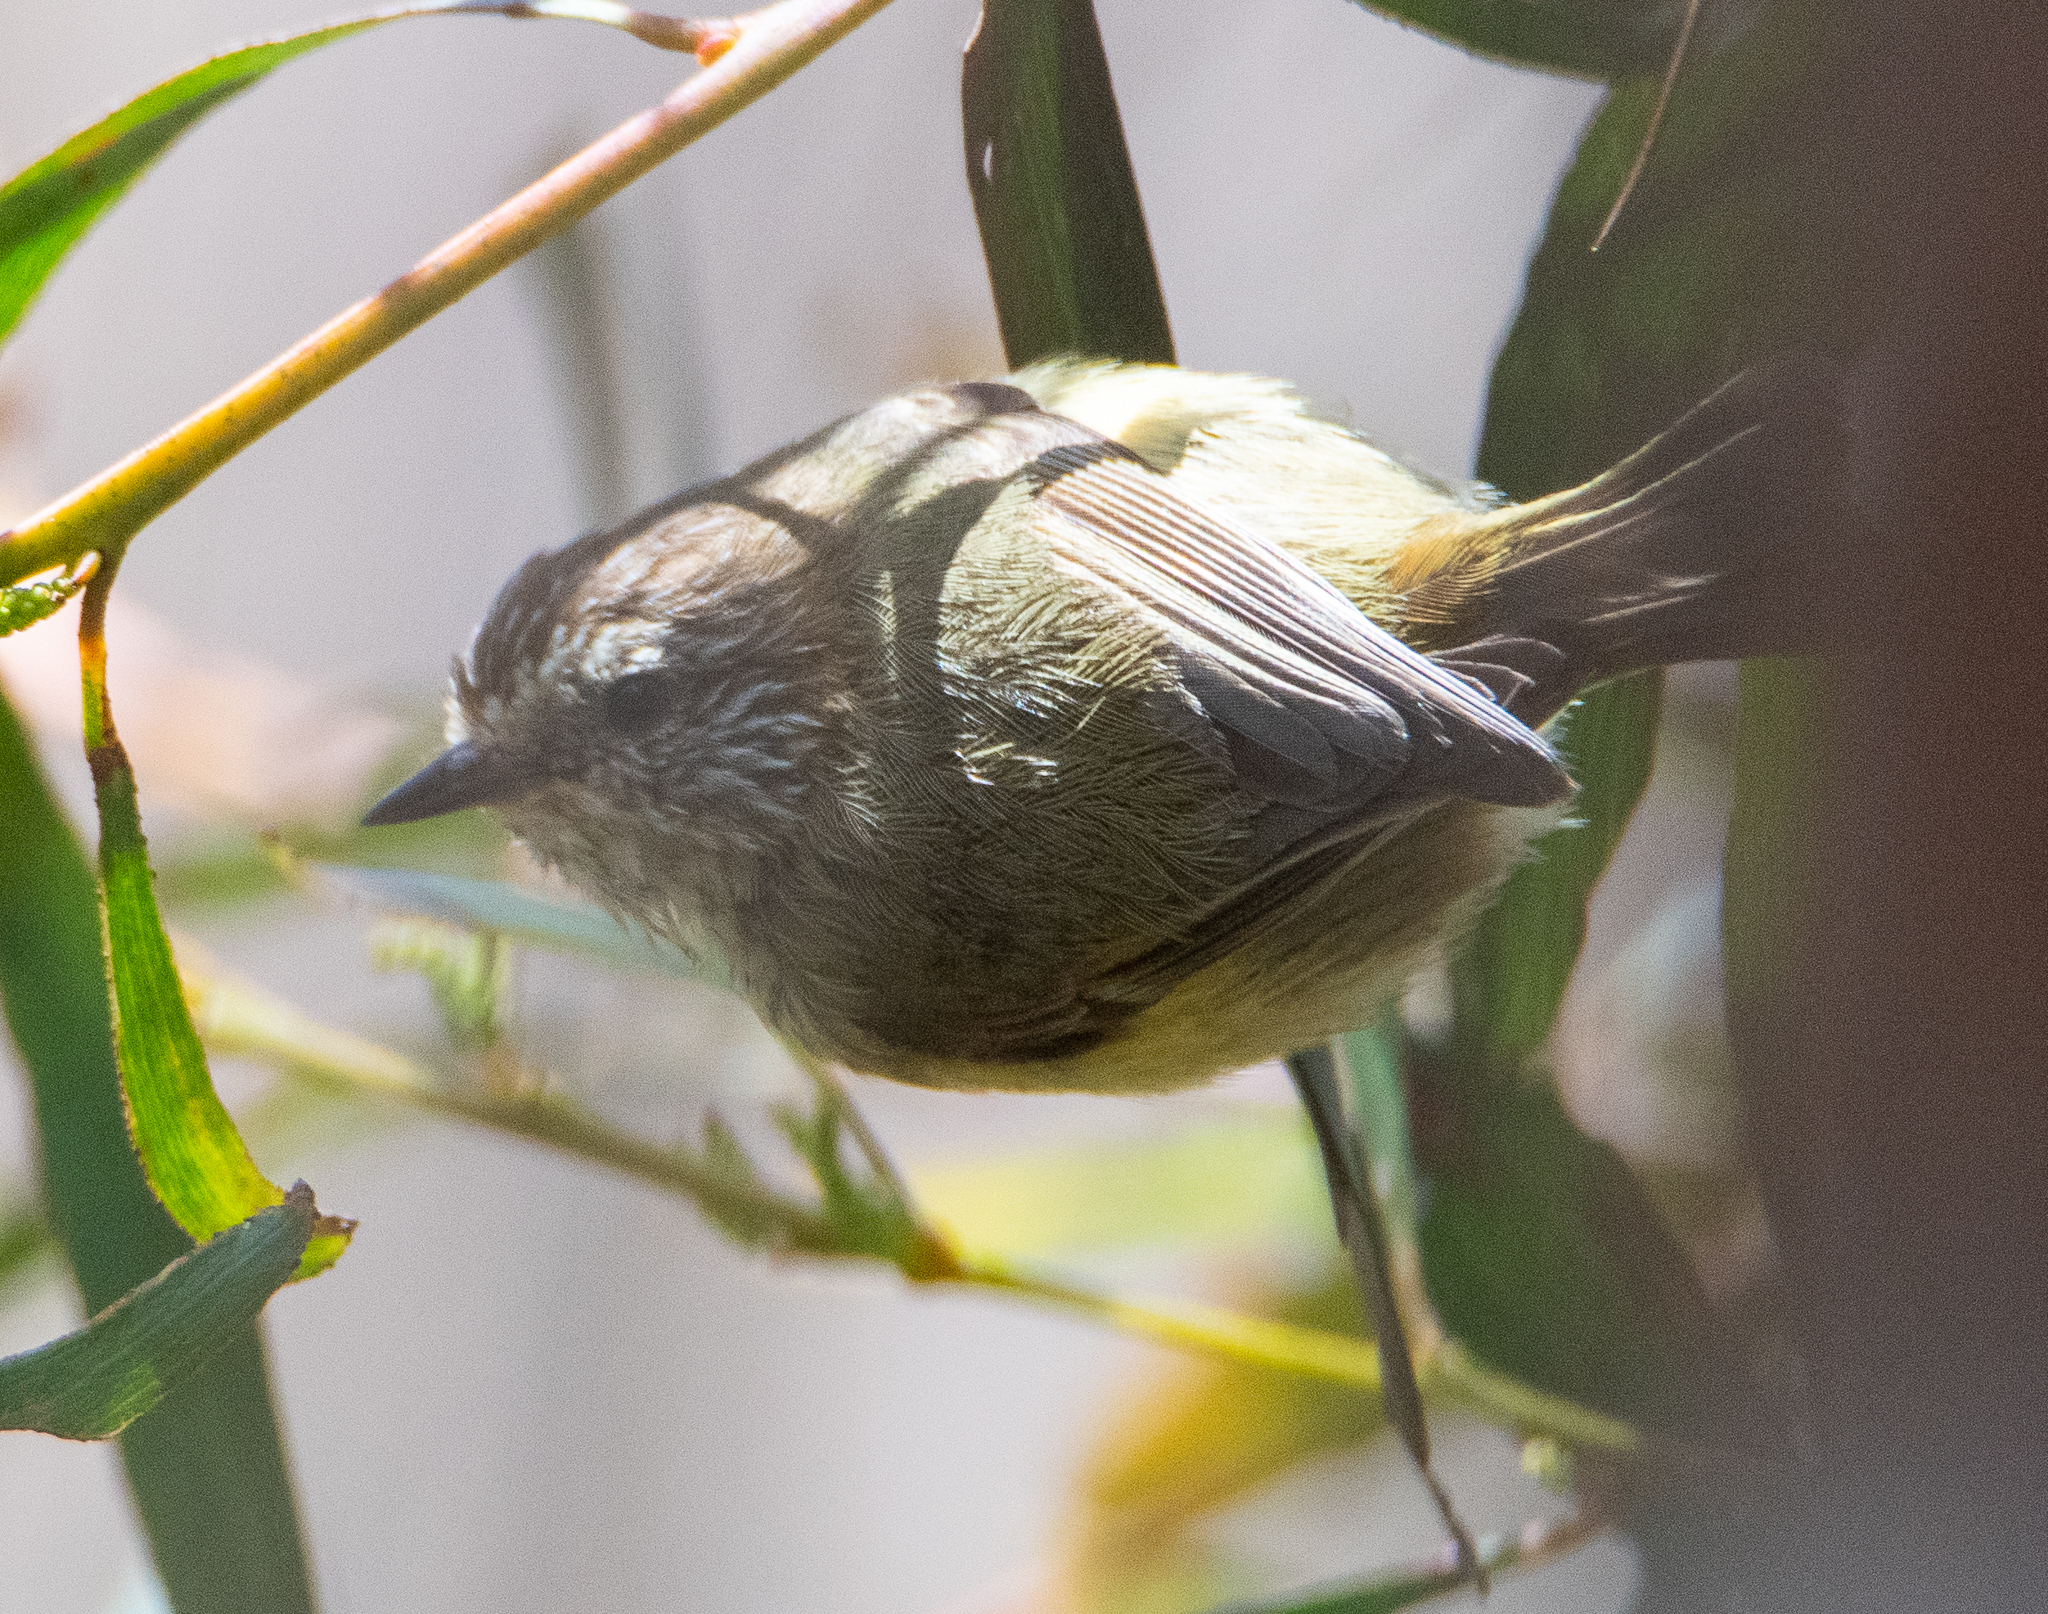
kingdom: Animalia
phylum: Chordata
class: Aves
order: Passeriformes
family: Acanthizidae
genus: Acanthiza
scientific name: Acanthiza lineata
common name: Striated thornbill
